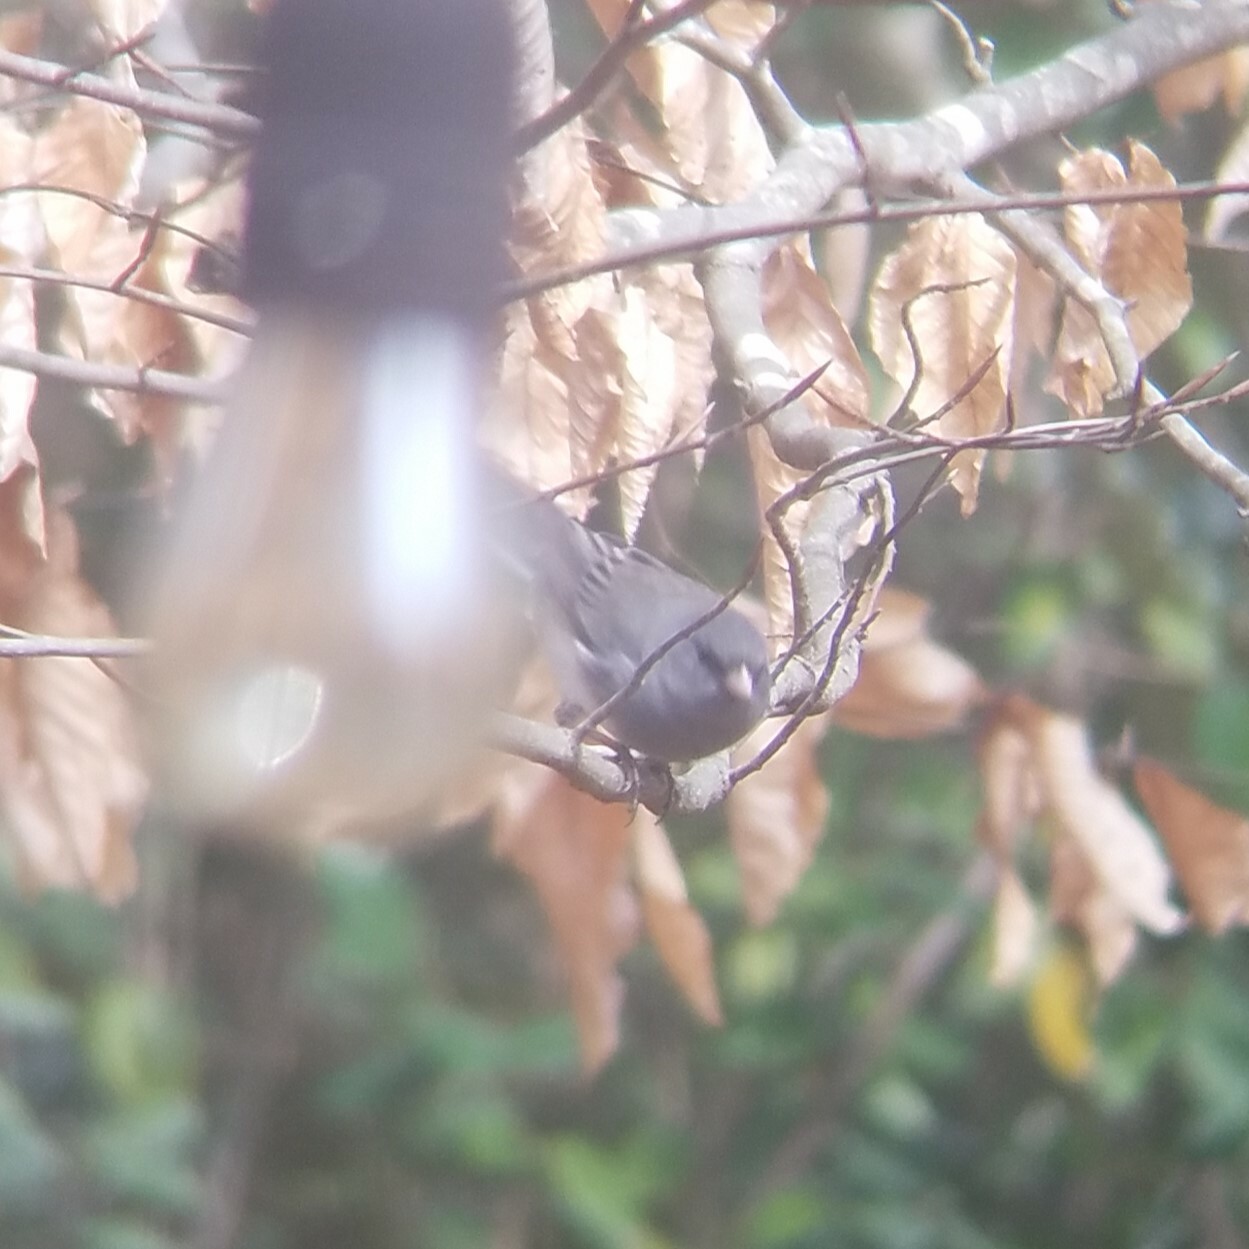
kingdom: Animalia
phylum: Chordata
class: Aves
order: Passeriformes
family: Passerellidae
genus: Junco
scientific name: Junco hyemalis
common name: Dark-eyed junco
